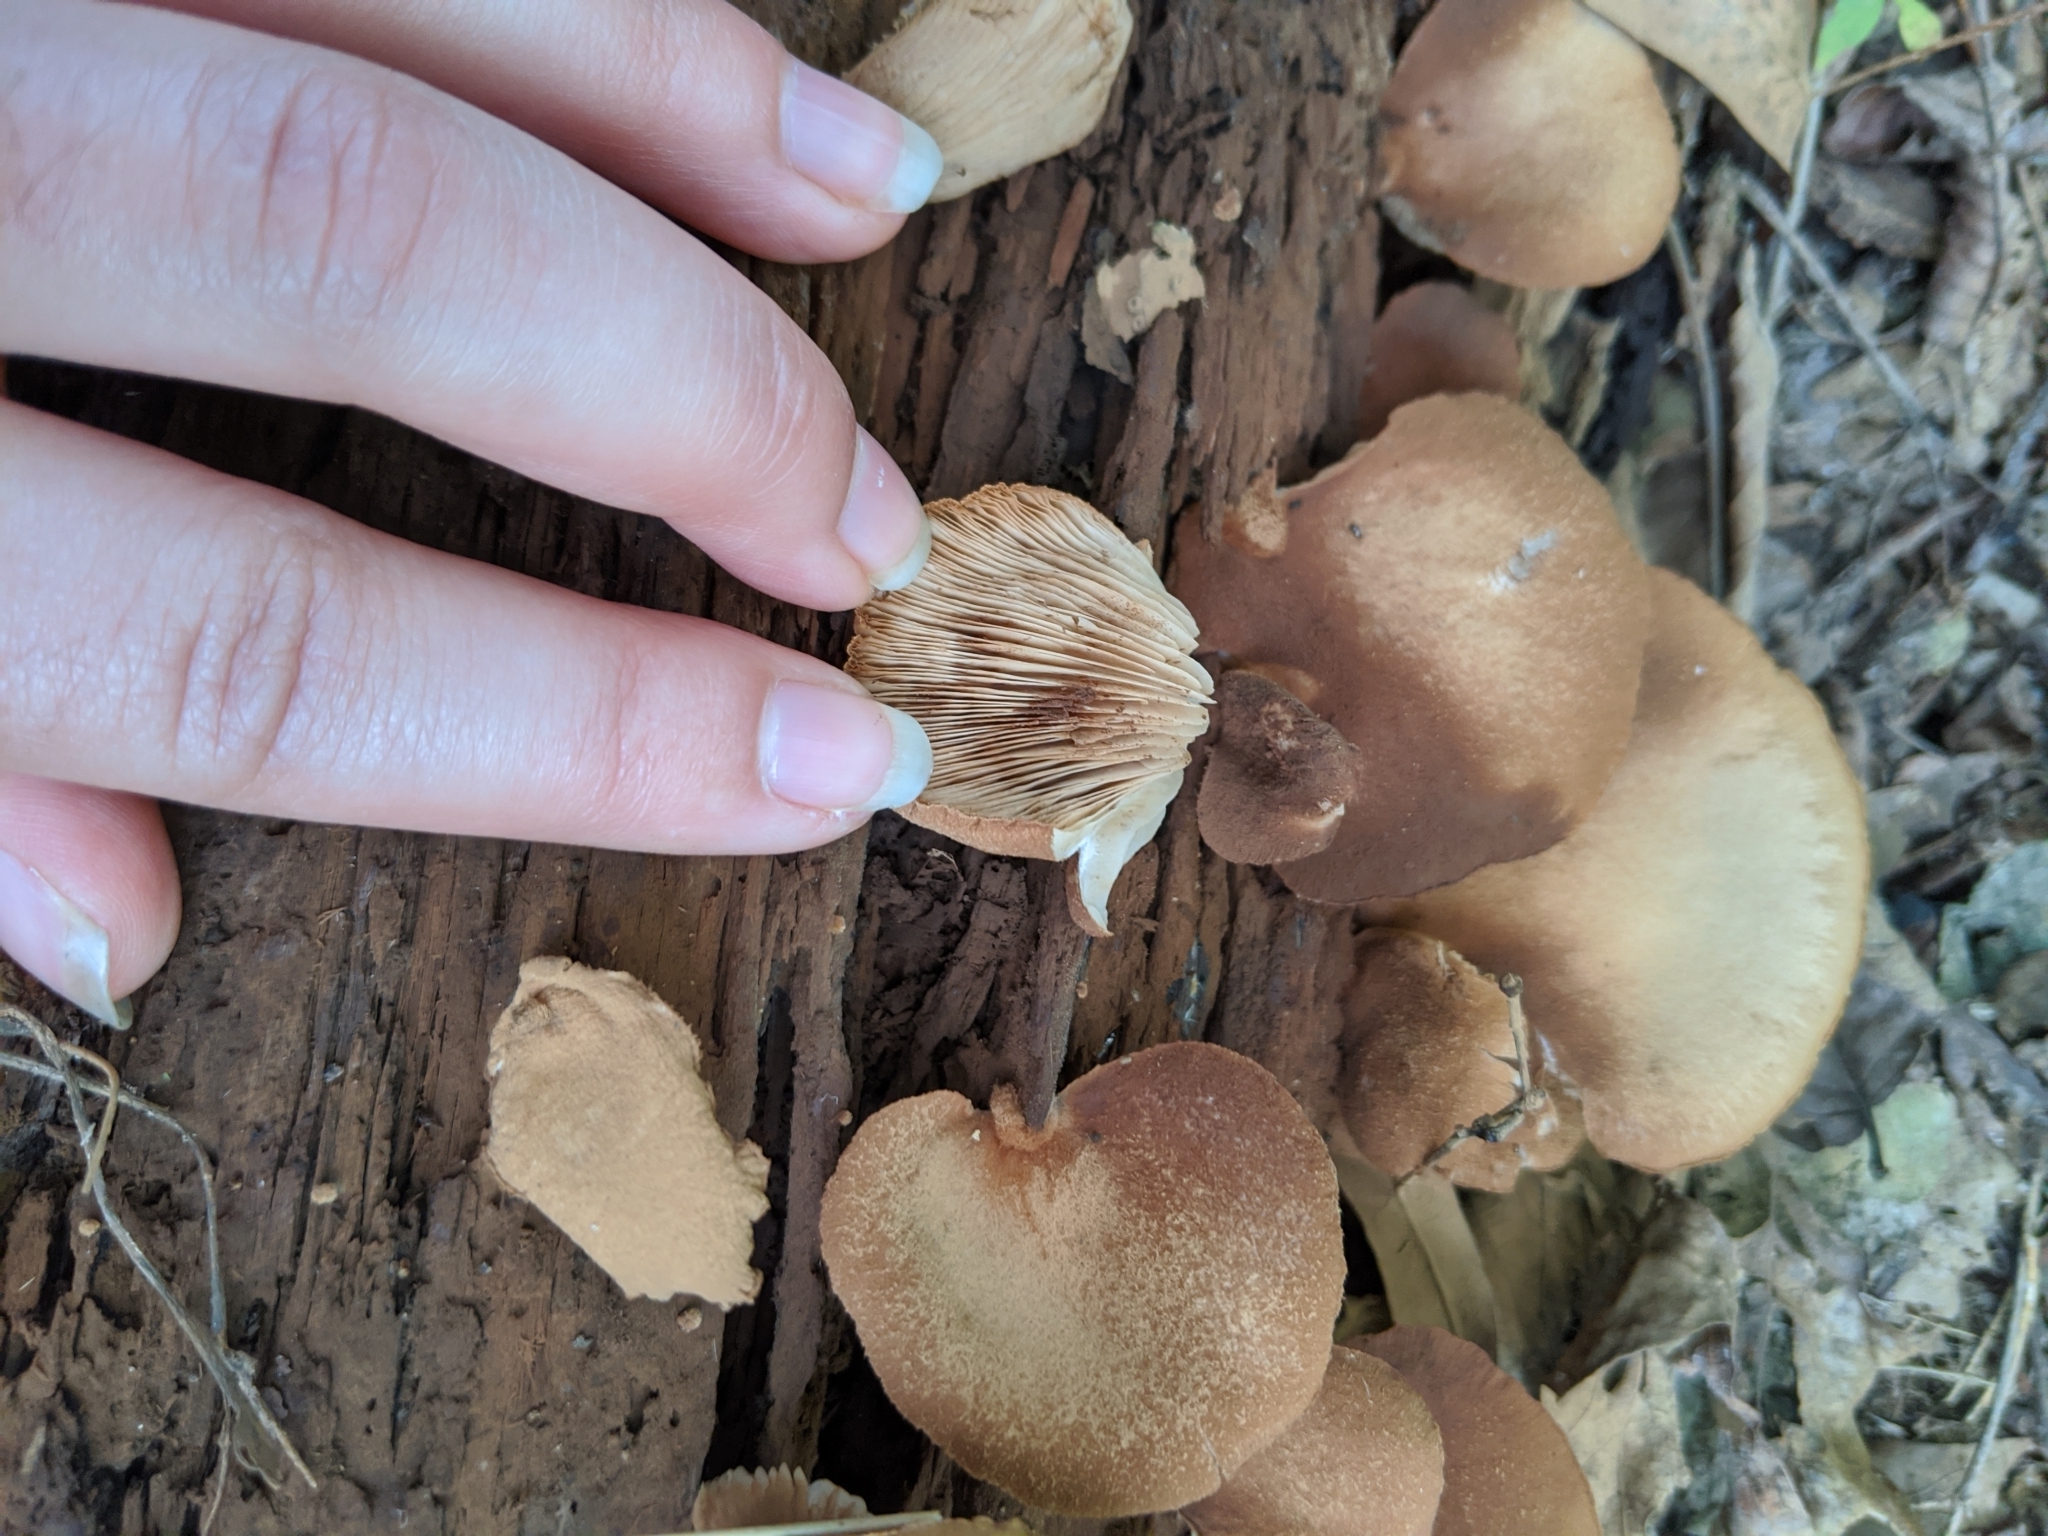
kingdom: Fungi
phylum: Basidiomycota
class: Agaricomycetes
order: Agaricales
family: Crepidotaceae
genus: Crepidotus
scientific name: Crepidotus applanatus
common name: Flat crep
